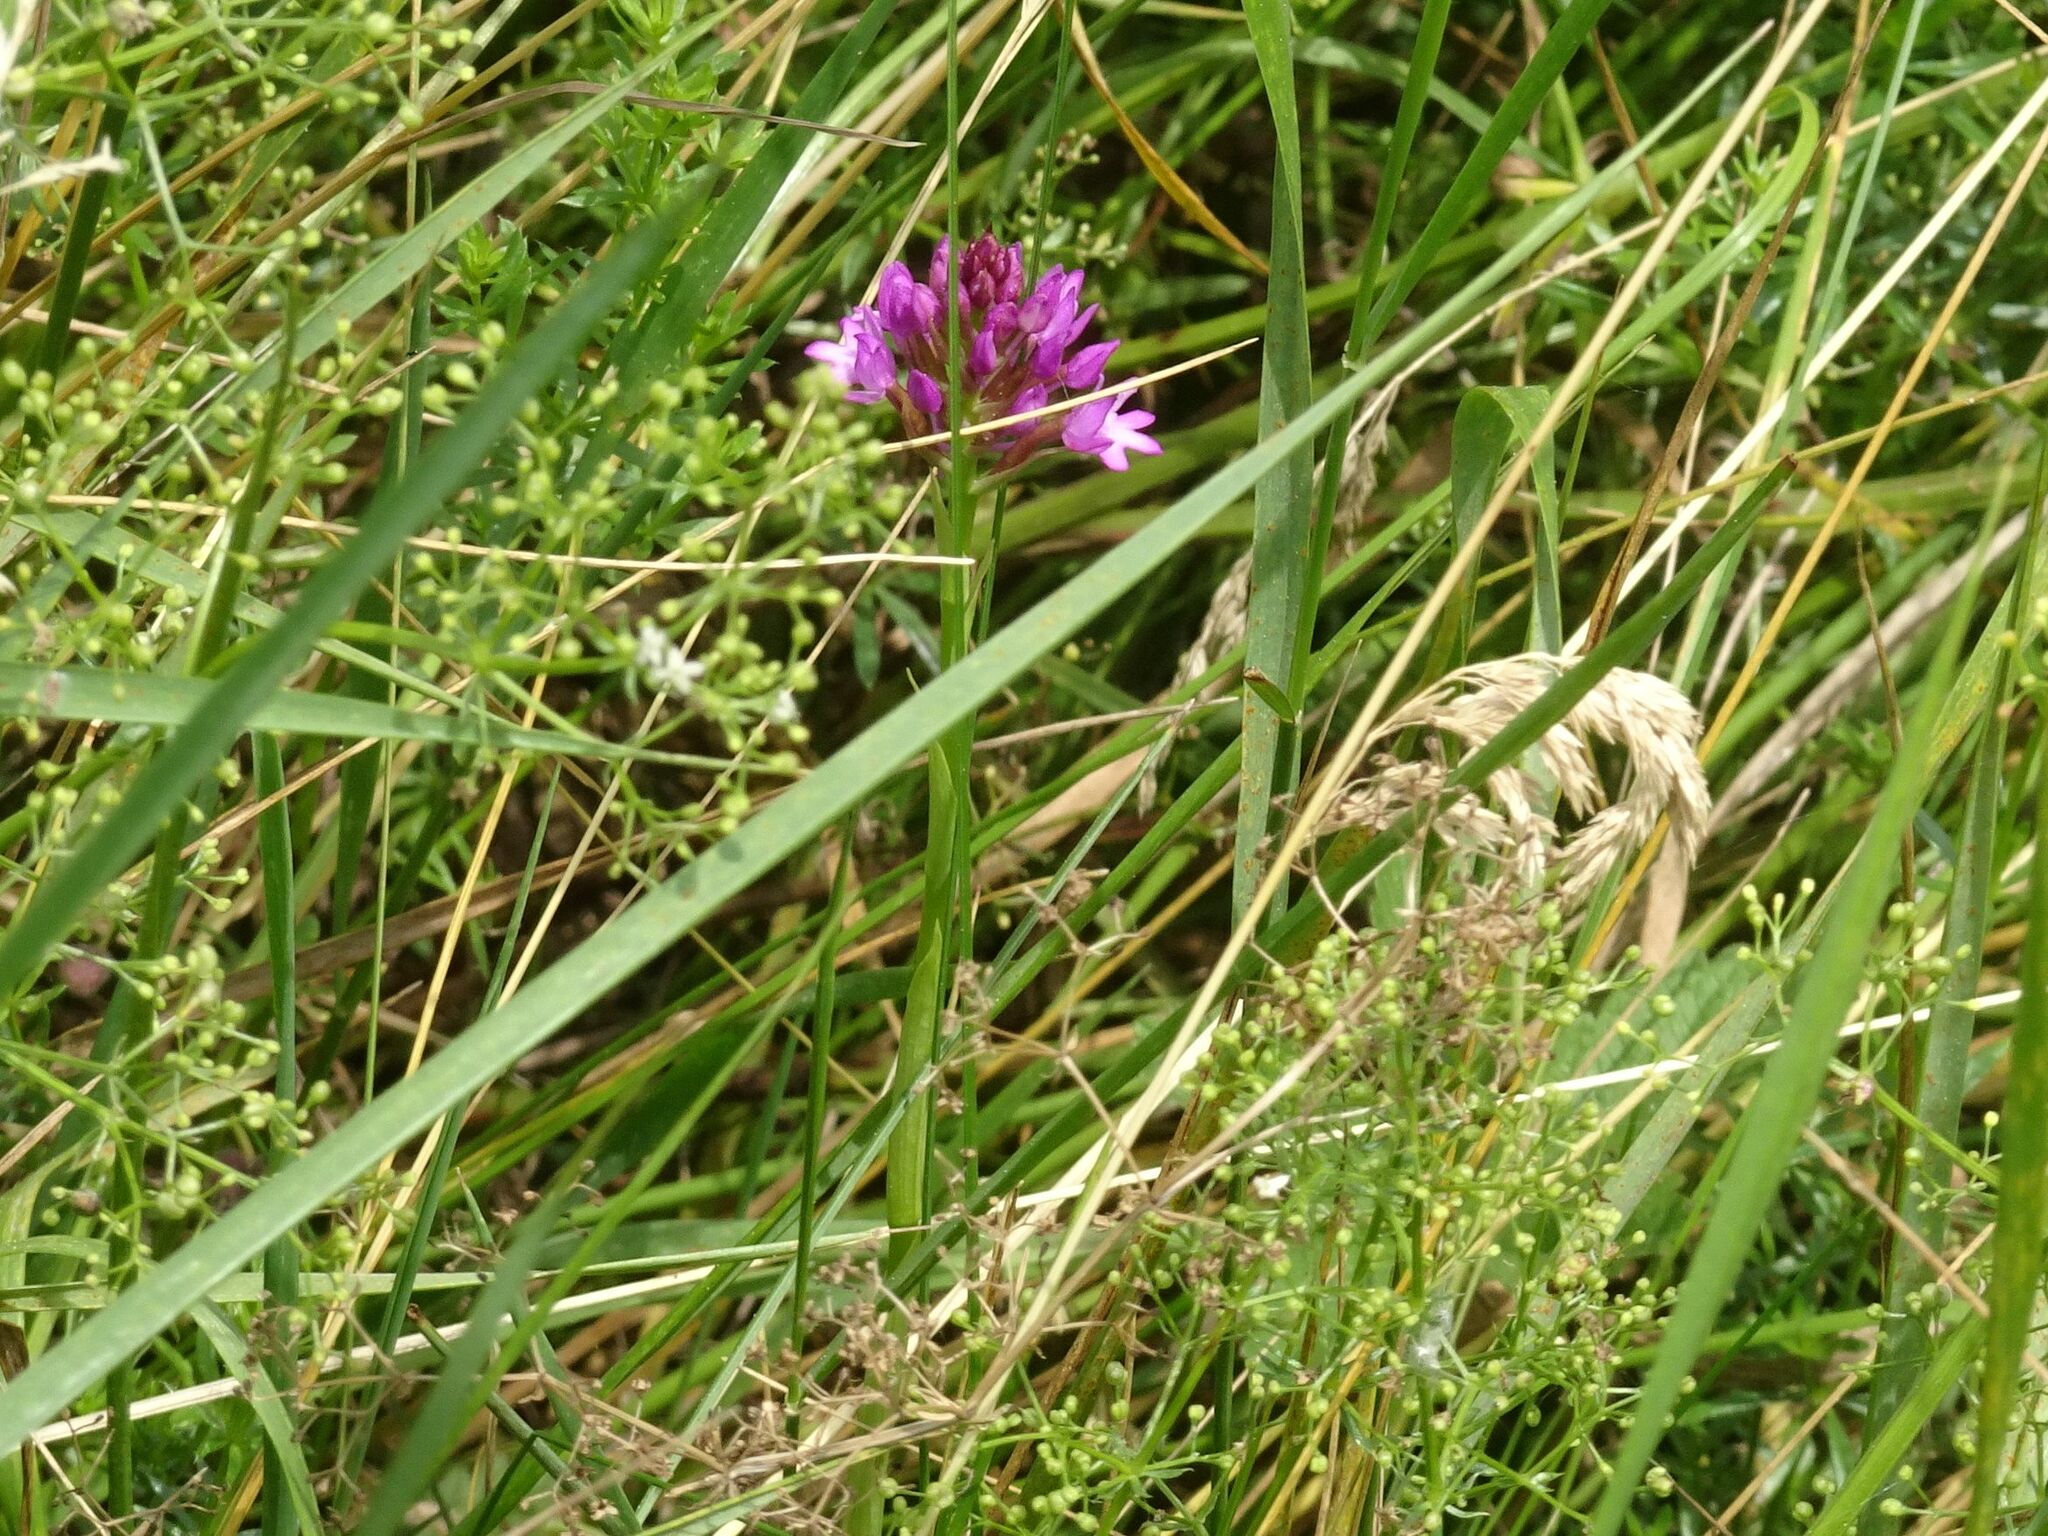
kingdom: Plantae
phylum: Tracheophyta
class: Liliopsida
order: Asparagales
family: Orchidaceae
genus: Anacamptis
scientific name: Anacamptis pyramidalis
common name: Pyramidal orchid
